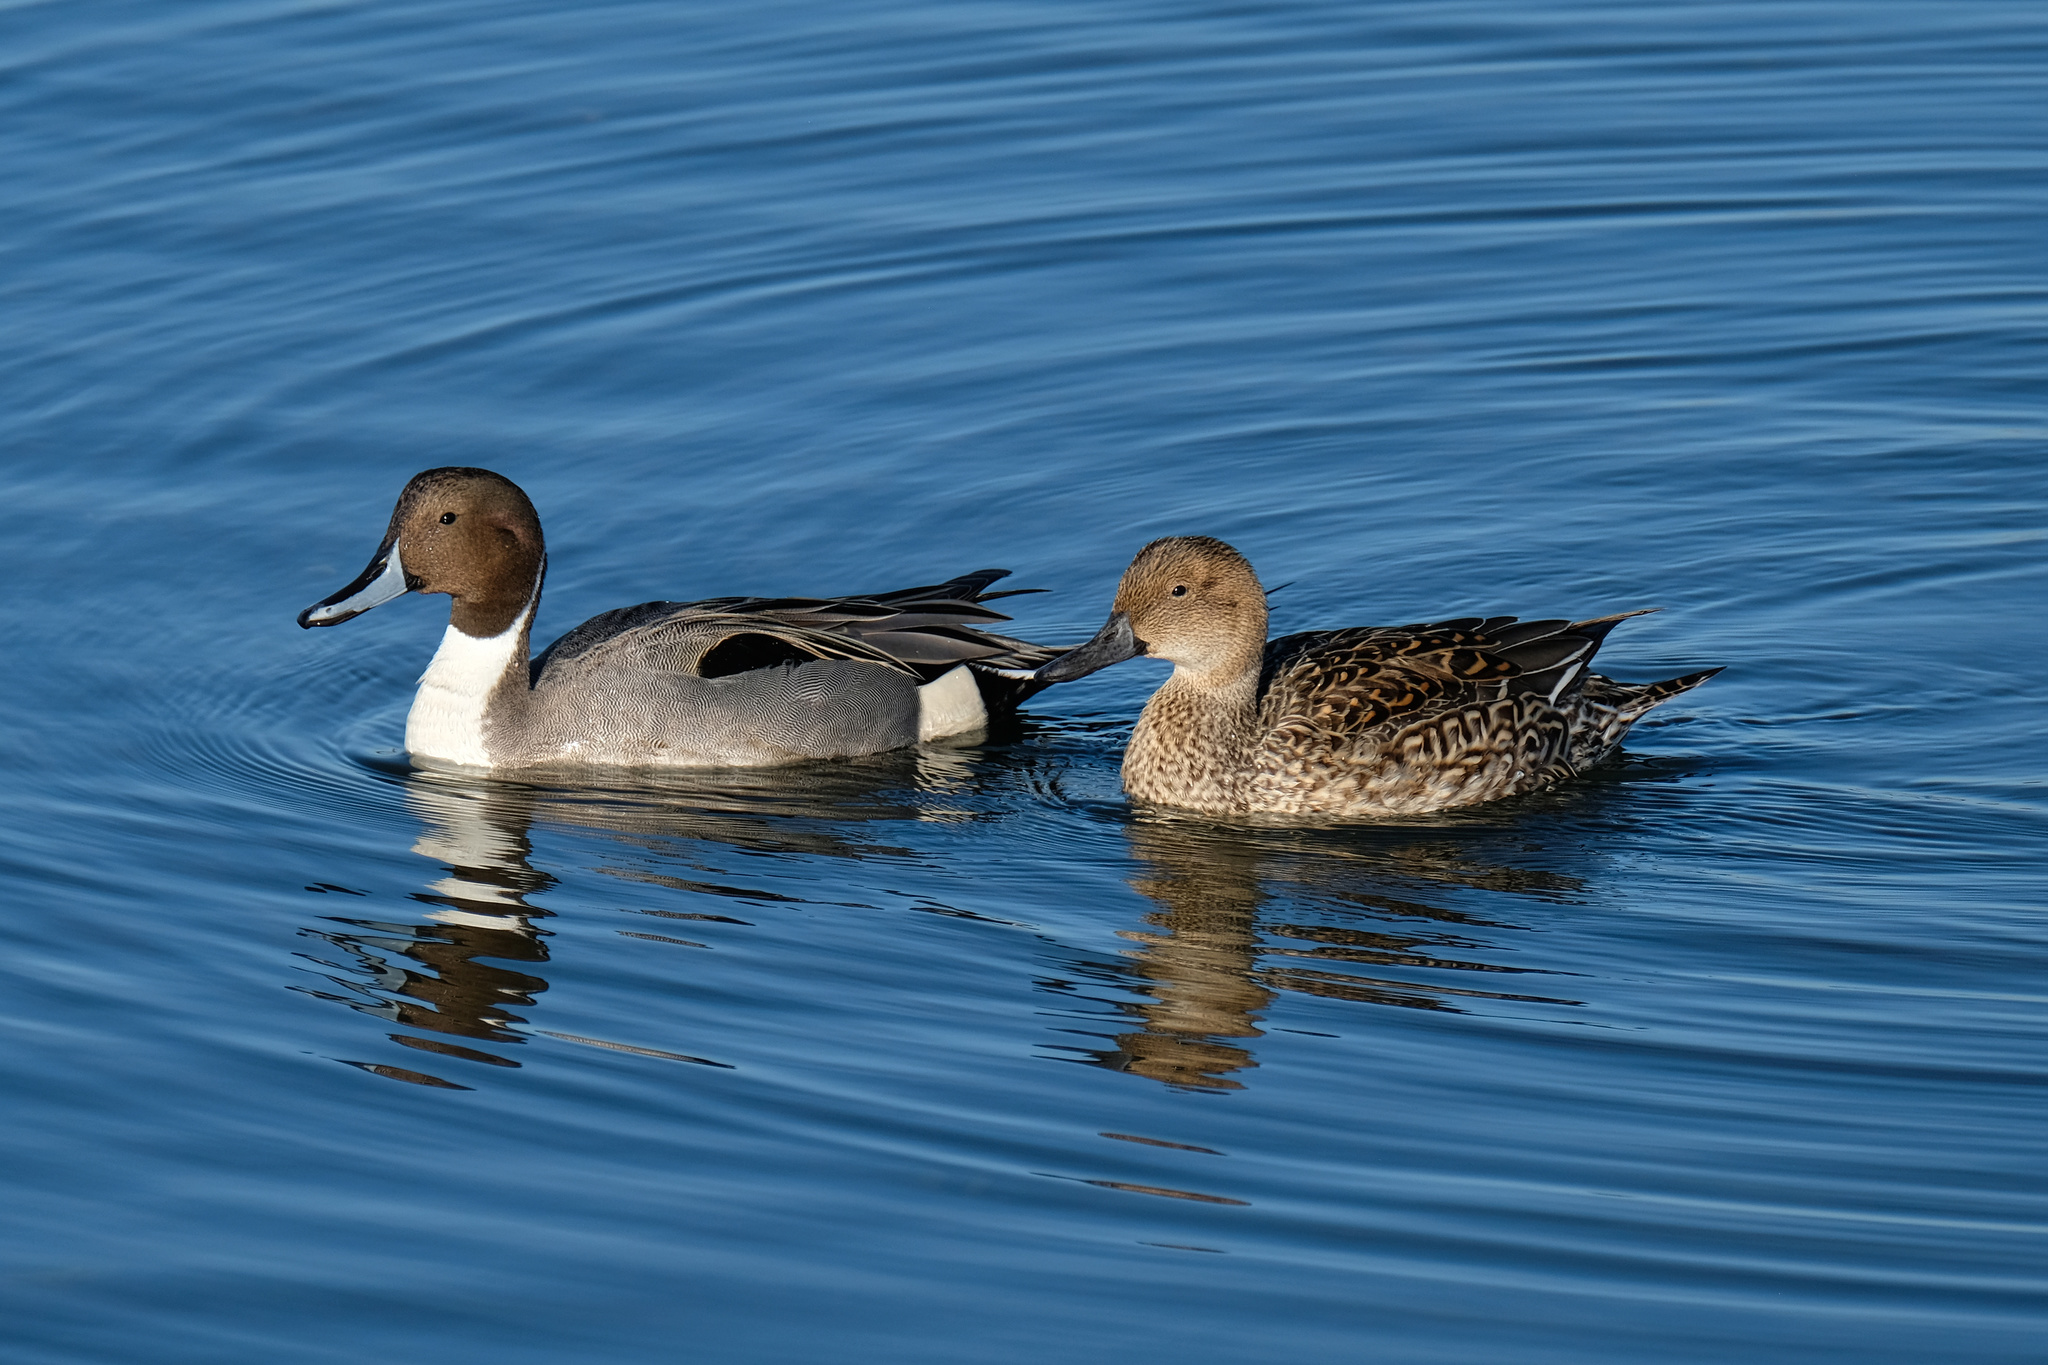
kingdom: Animalia
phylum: Chordata
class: Aves
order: Anseriformes
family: Anatidae
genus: Anas
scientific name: Anas acuta
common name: Northern pintail
